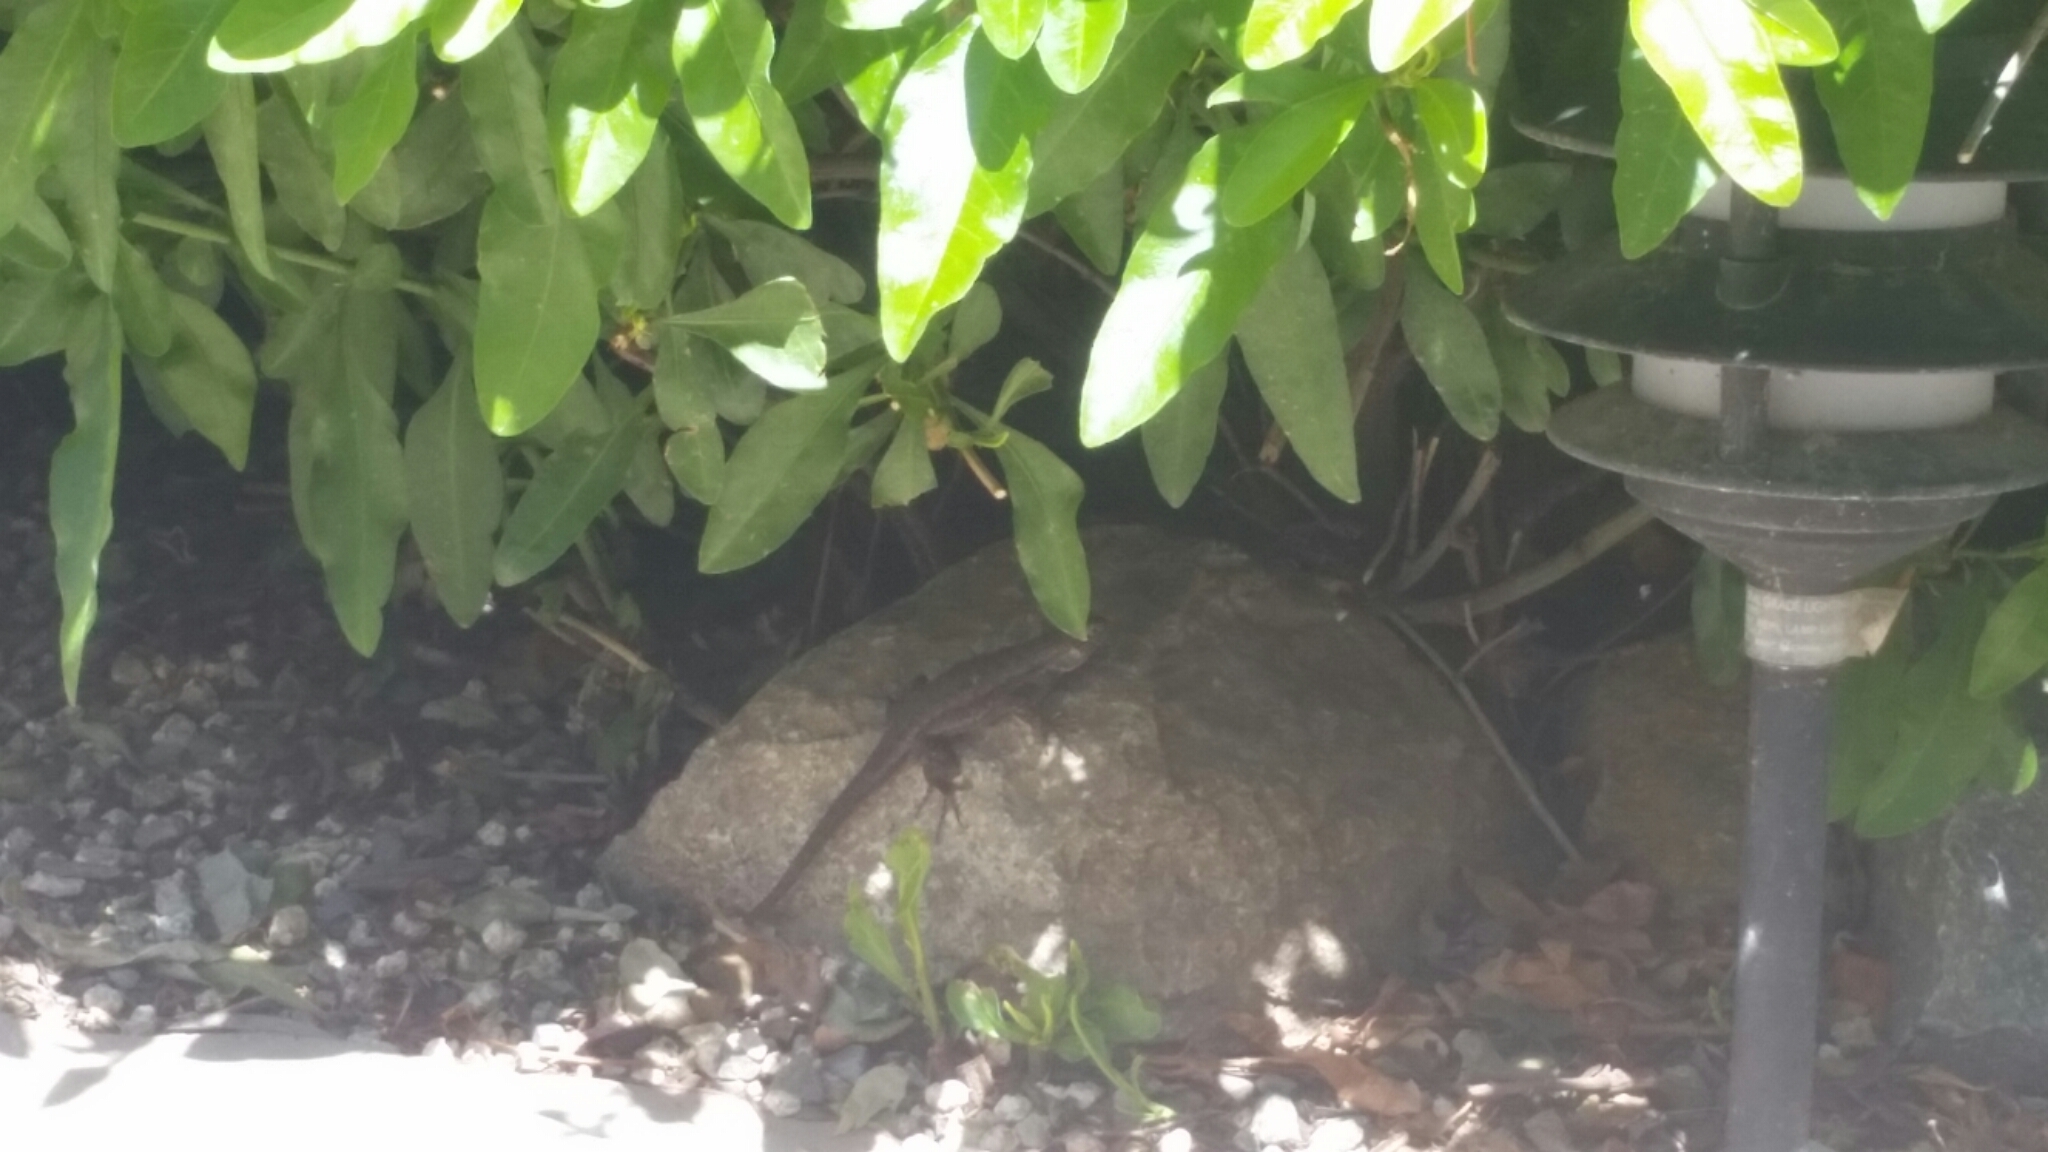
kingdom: Animalia
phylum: Chordata
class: Squamata
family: Phrynosomatidae
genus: Sceloporus
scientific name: Sceloporus occidentalis
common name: Western fence lizard
